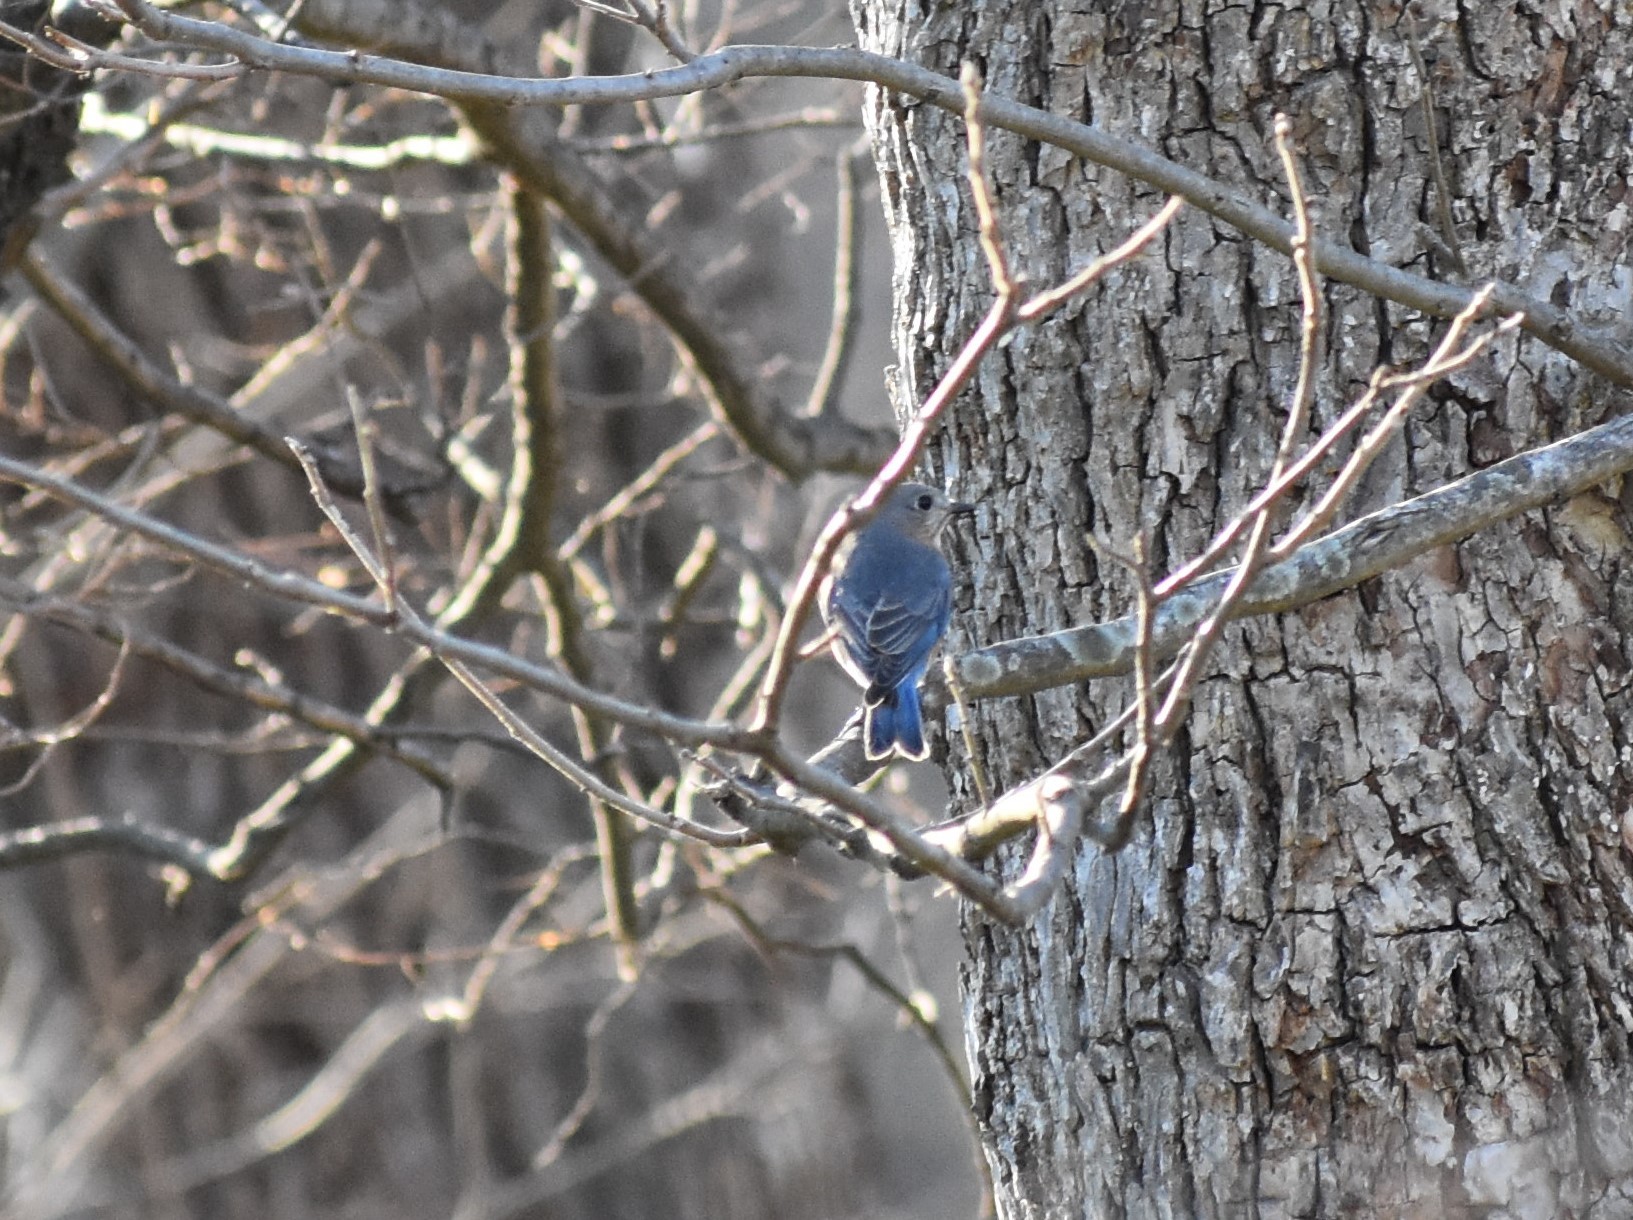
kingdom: Animalia
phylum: Chordata
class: Aves
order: Passeriformes
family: Turdidae
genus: Sialia
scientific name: Sialia sialis
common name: Eastern bluebird
